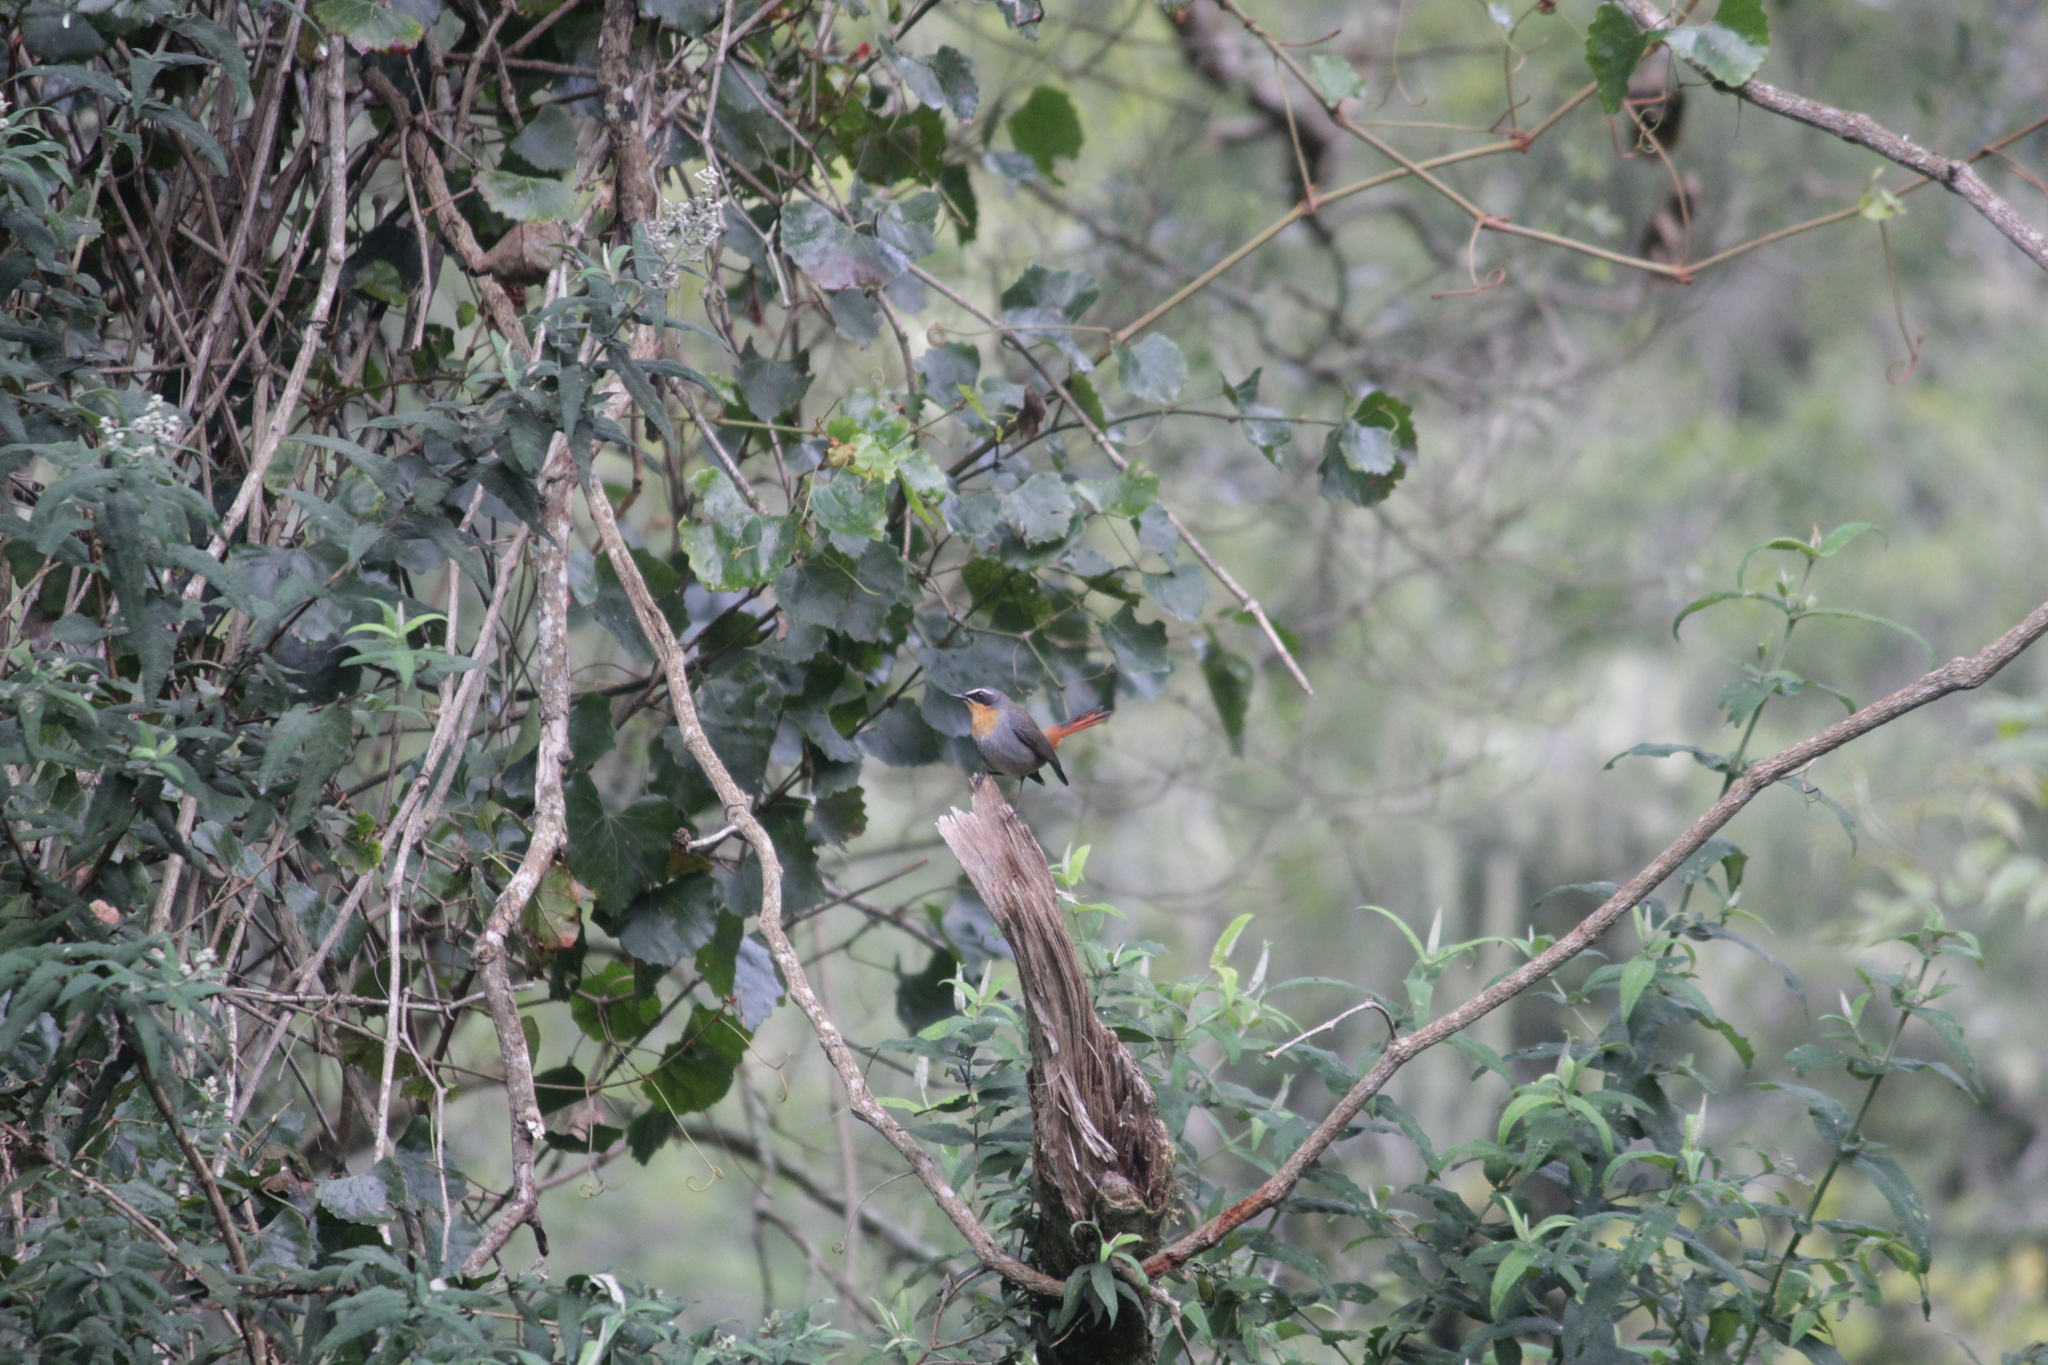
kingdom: Animalia
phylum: Chordata
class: Aves
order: Passeriformes
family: Muscicapidae
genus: Cossypha
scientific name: Cossypha caffra
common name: Cape robin-chat
